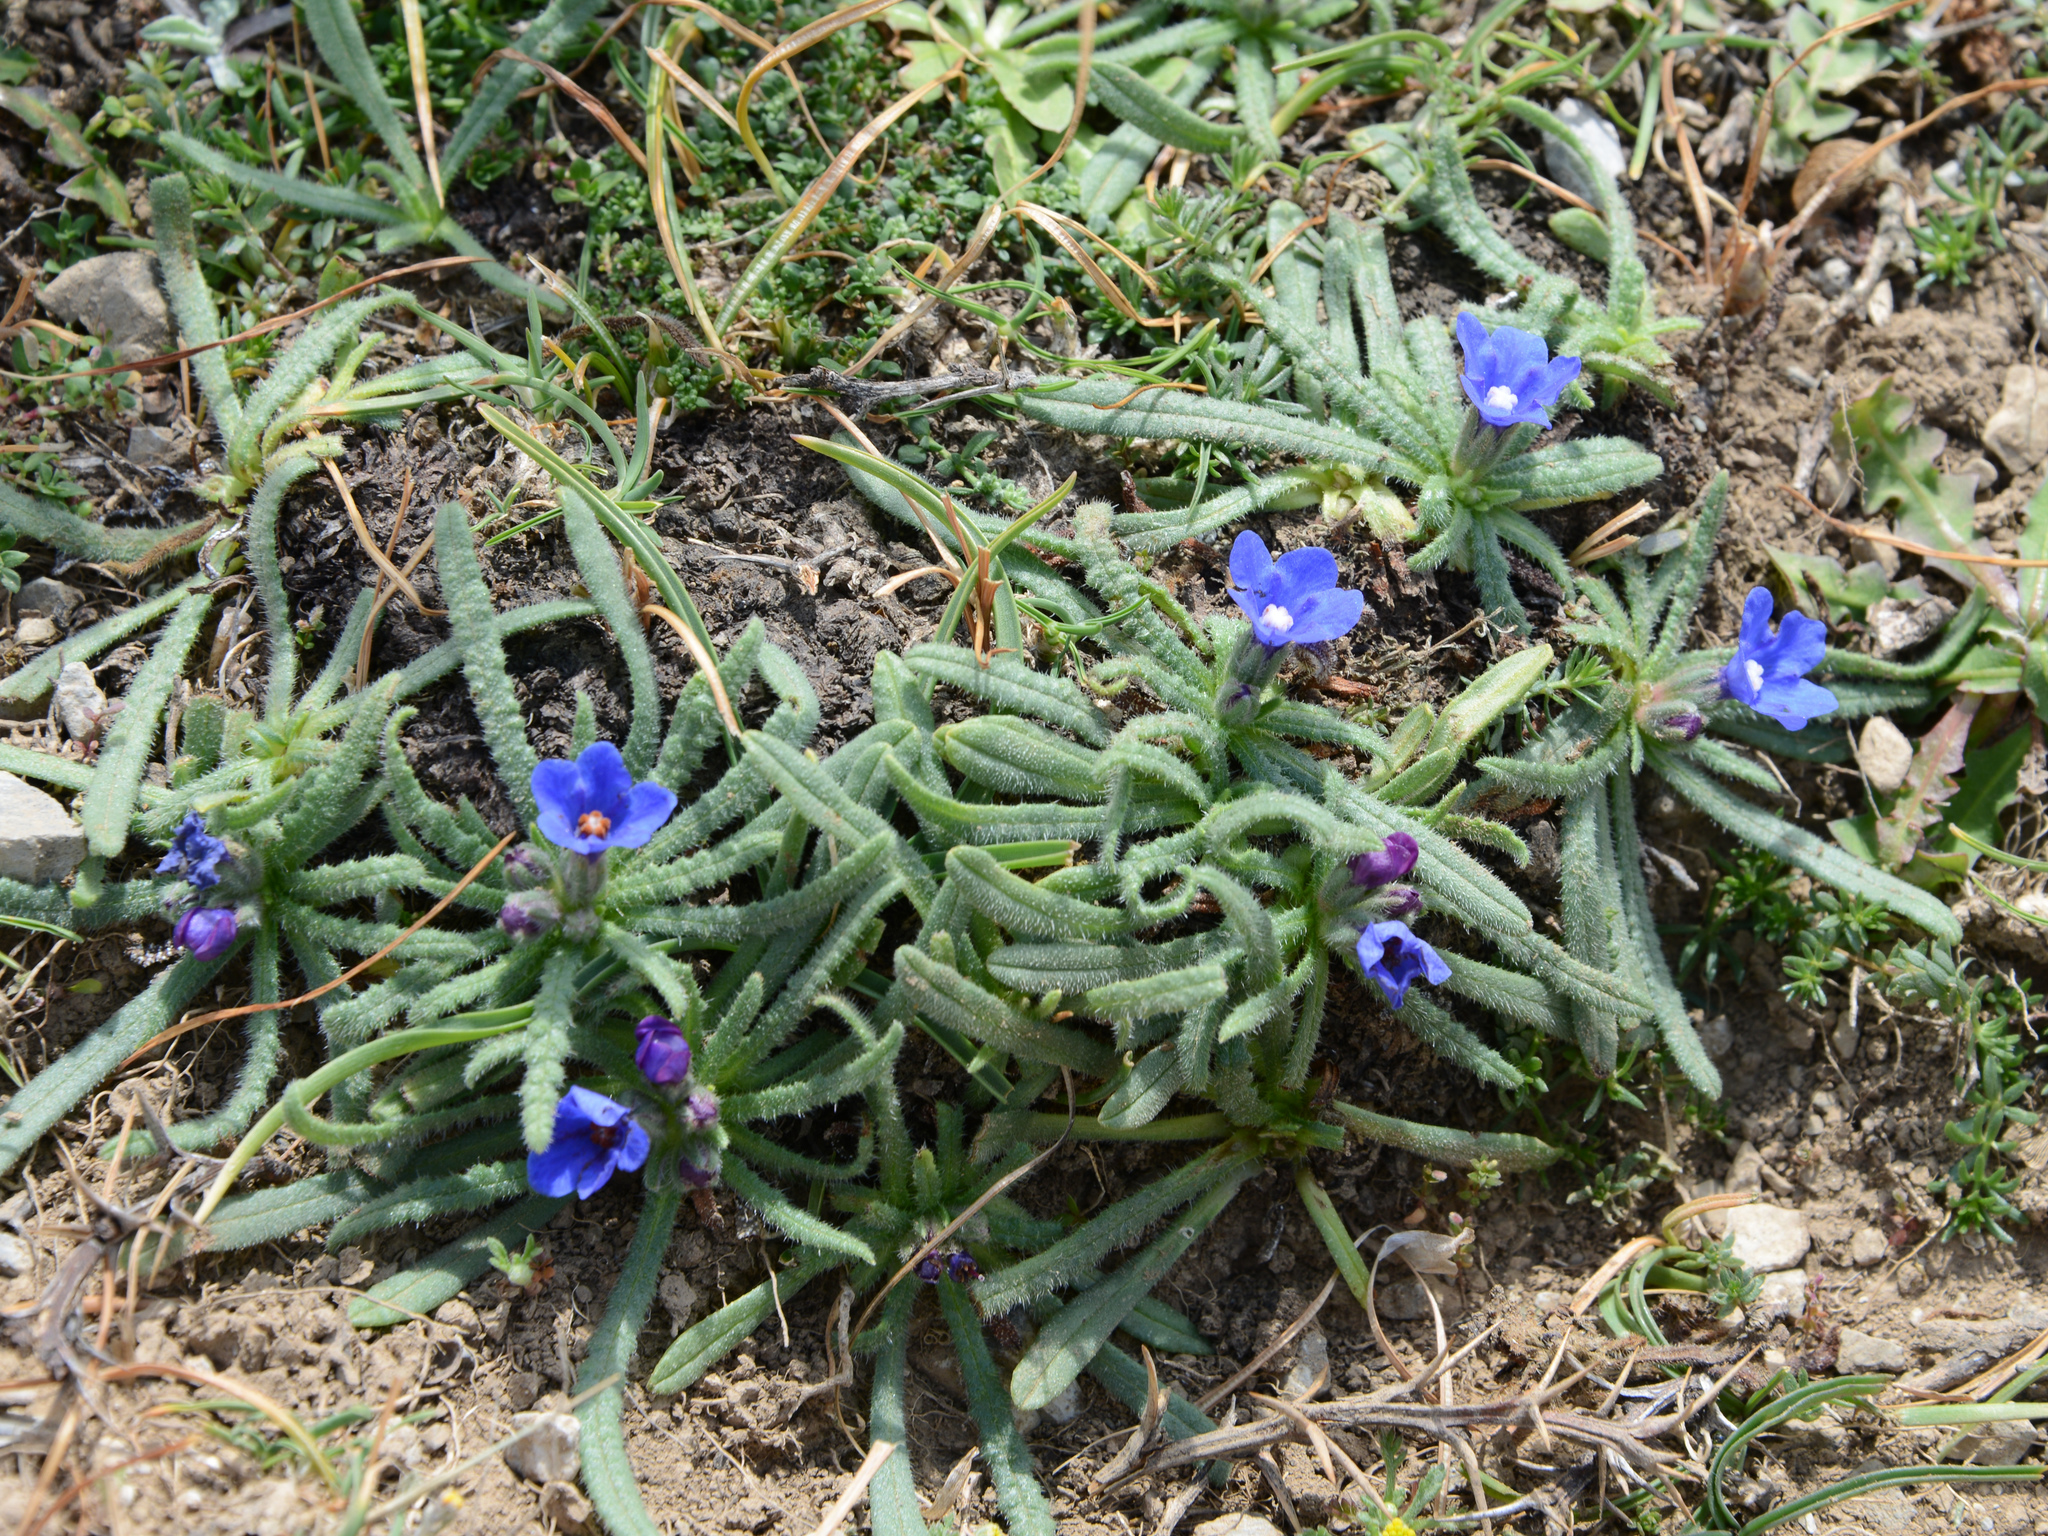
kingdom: Plantae
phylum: Tracheophyta
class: Magnoliopsida
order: Boraginales
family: Boraginaceae
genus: Anchusa
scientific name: Anchusa cespitosa
